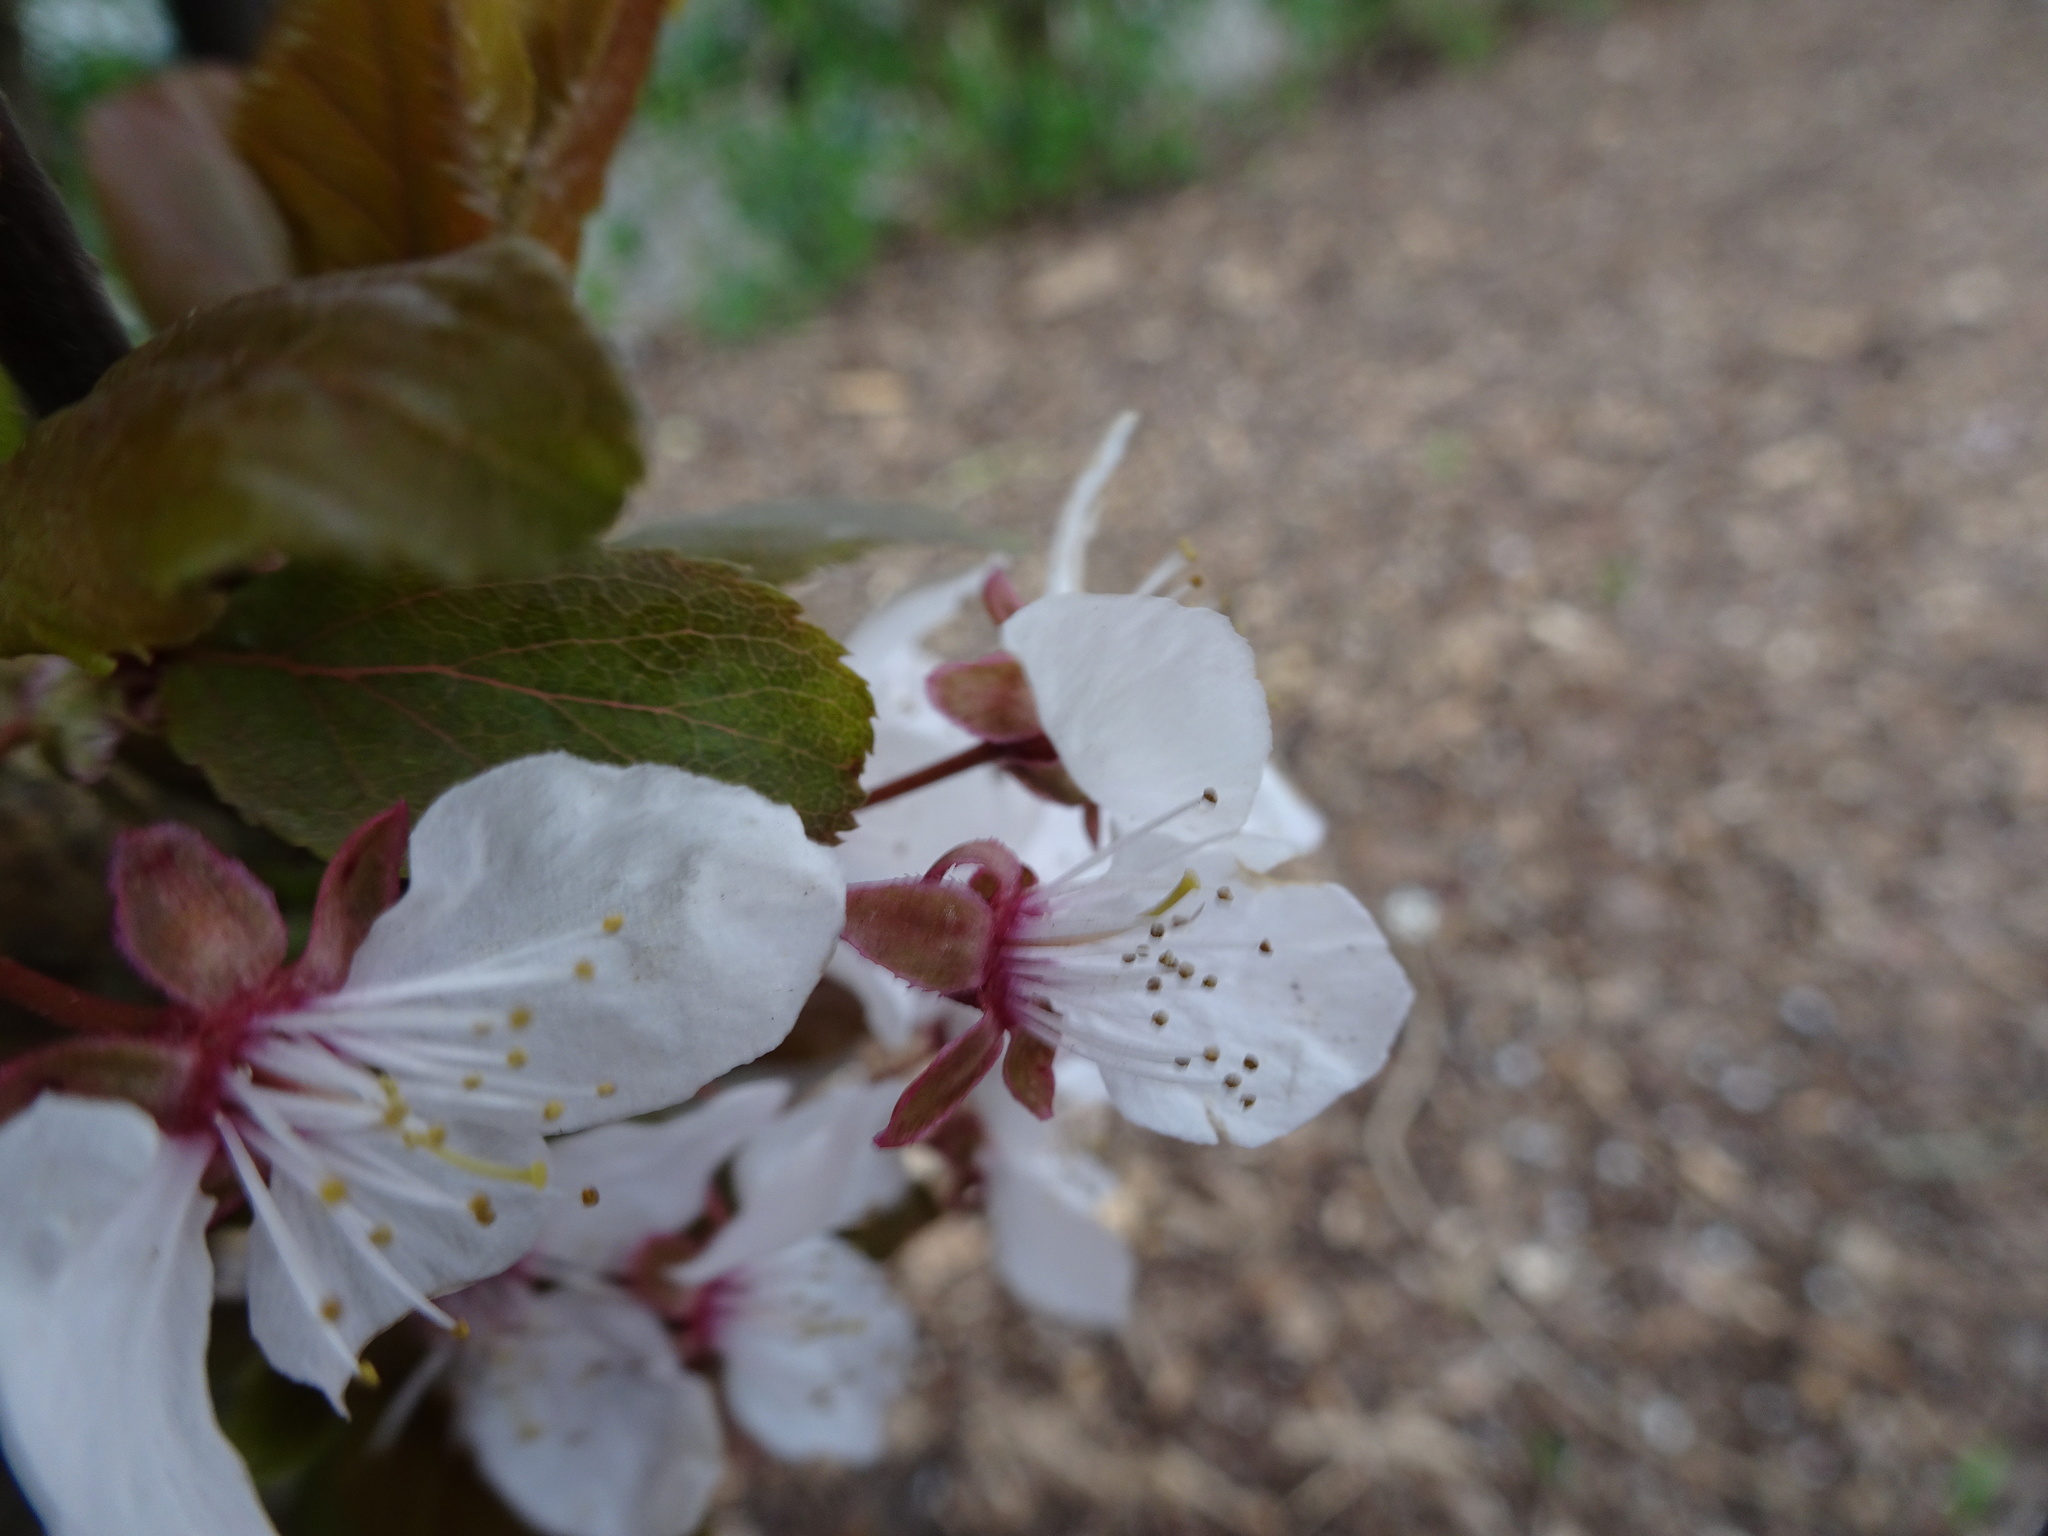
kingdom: Plantae
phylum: Tracheophyta
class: Magnoliopsida
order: Rosales
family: Rosaceae
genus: Prunus
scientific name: Prunus cerasifera
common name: Cherry plum
